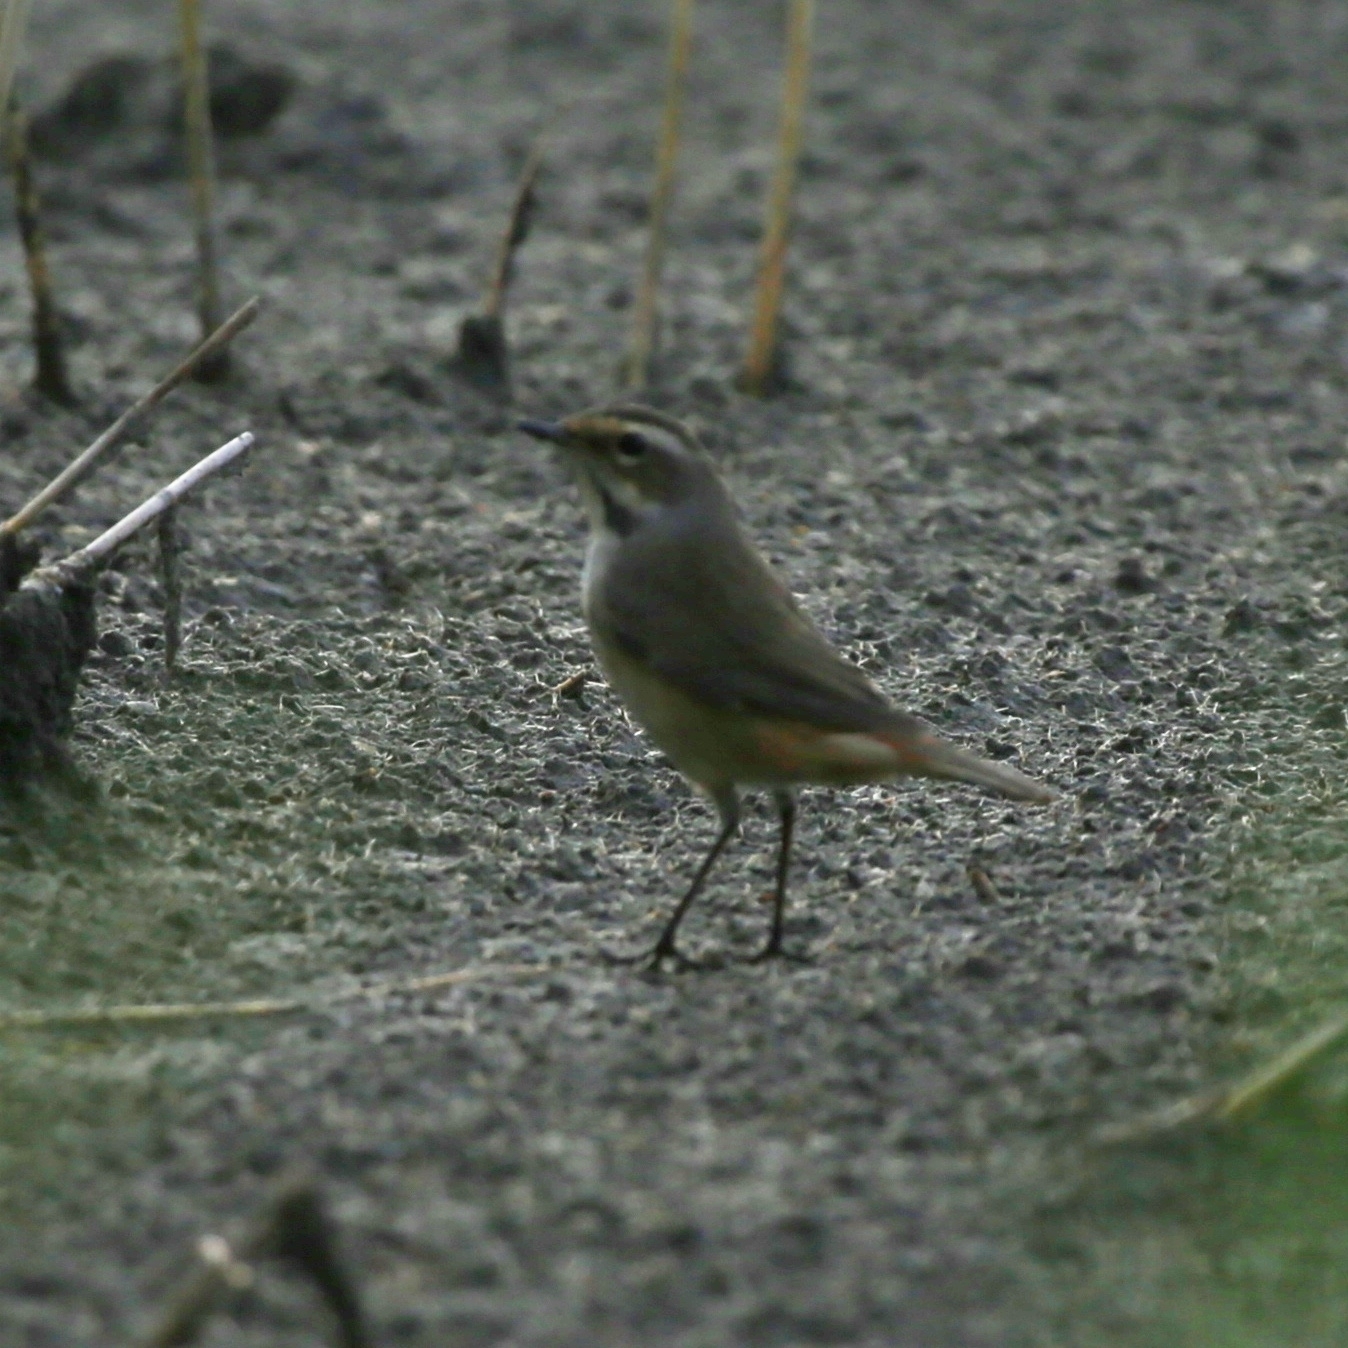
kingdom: Animalia
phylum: Chordata
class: Aves
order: Passeriformes
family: Muscicapidae
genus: Luscinia
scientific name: Luscinia svecica
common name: Bluethroat
